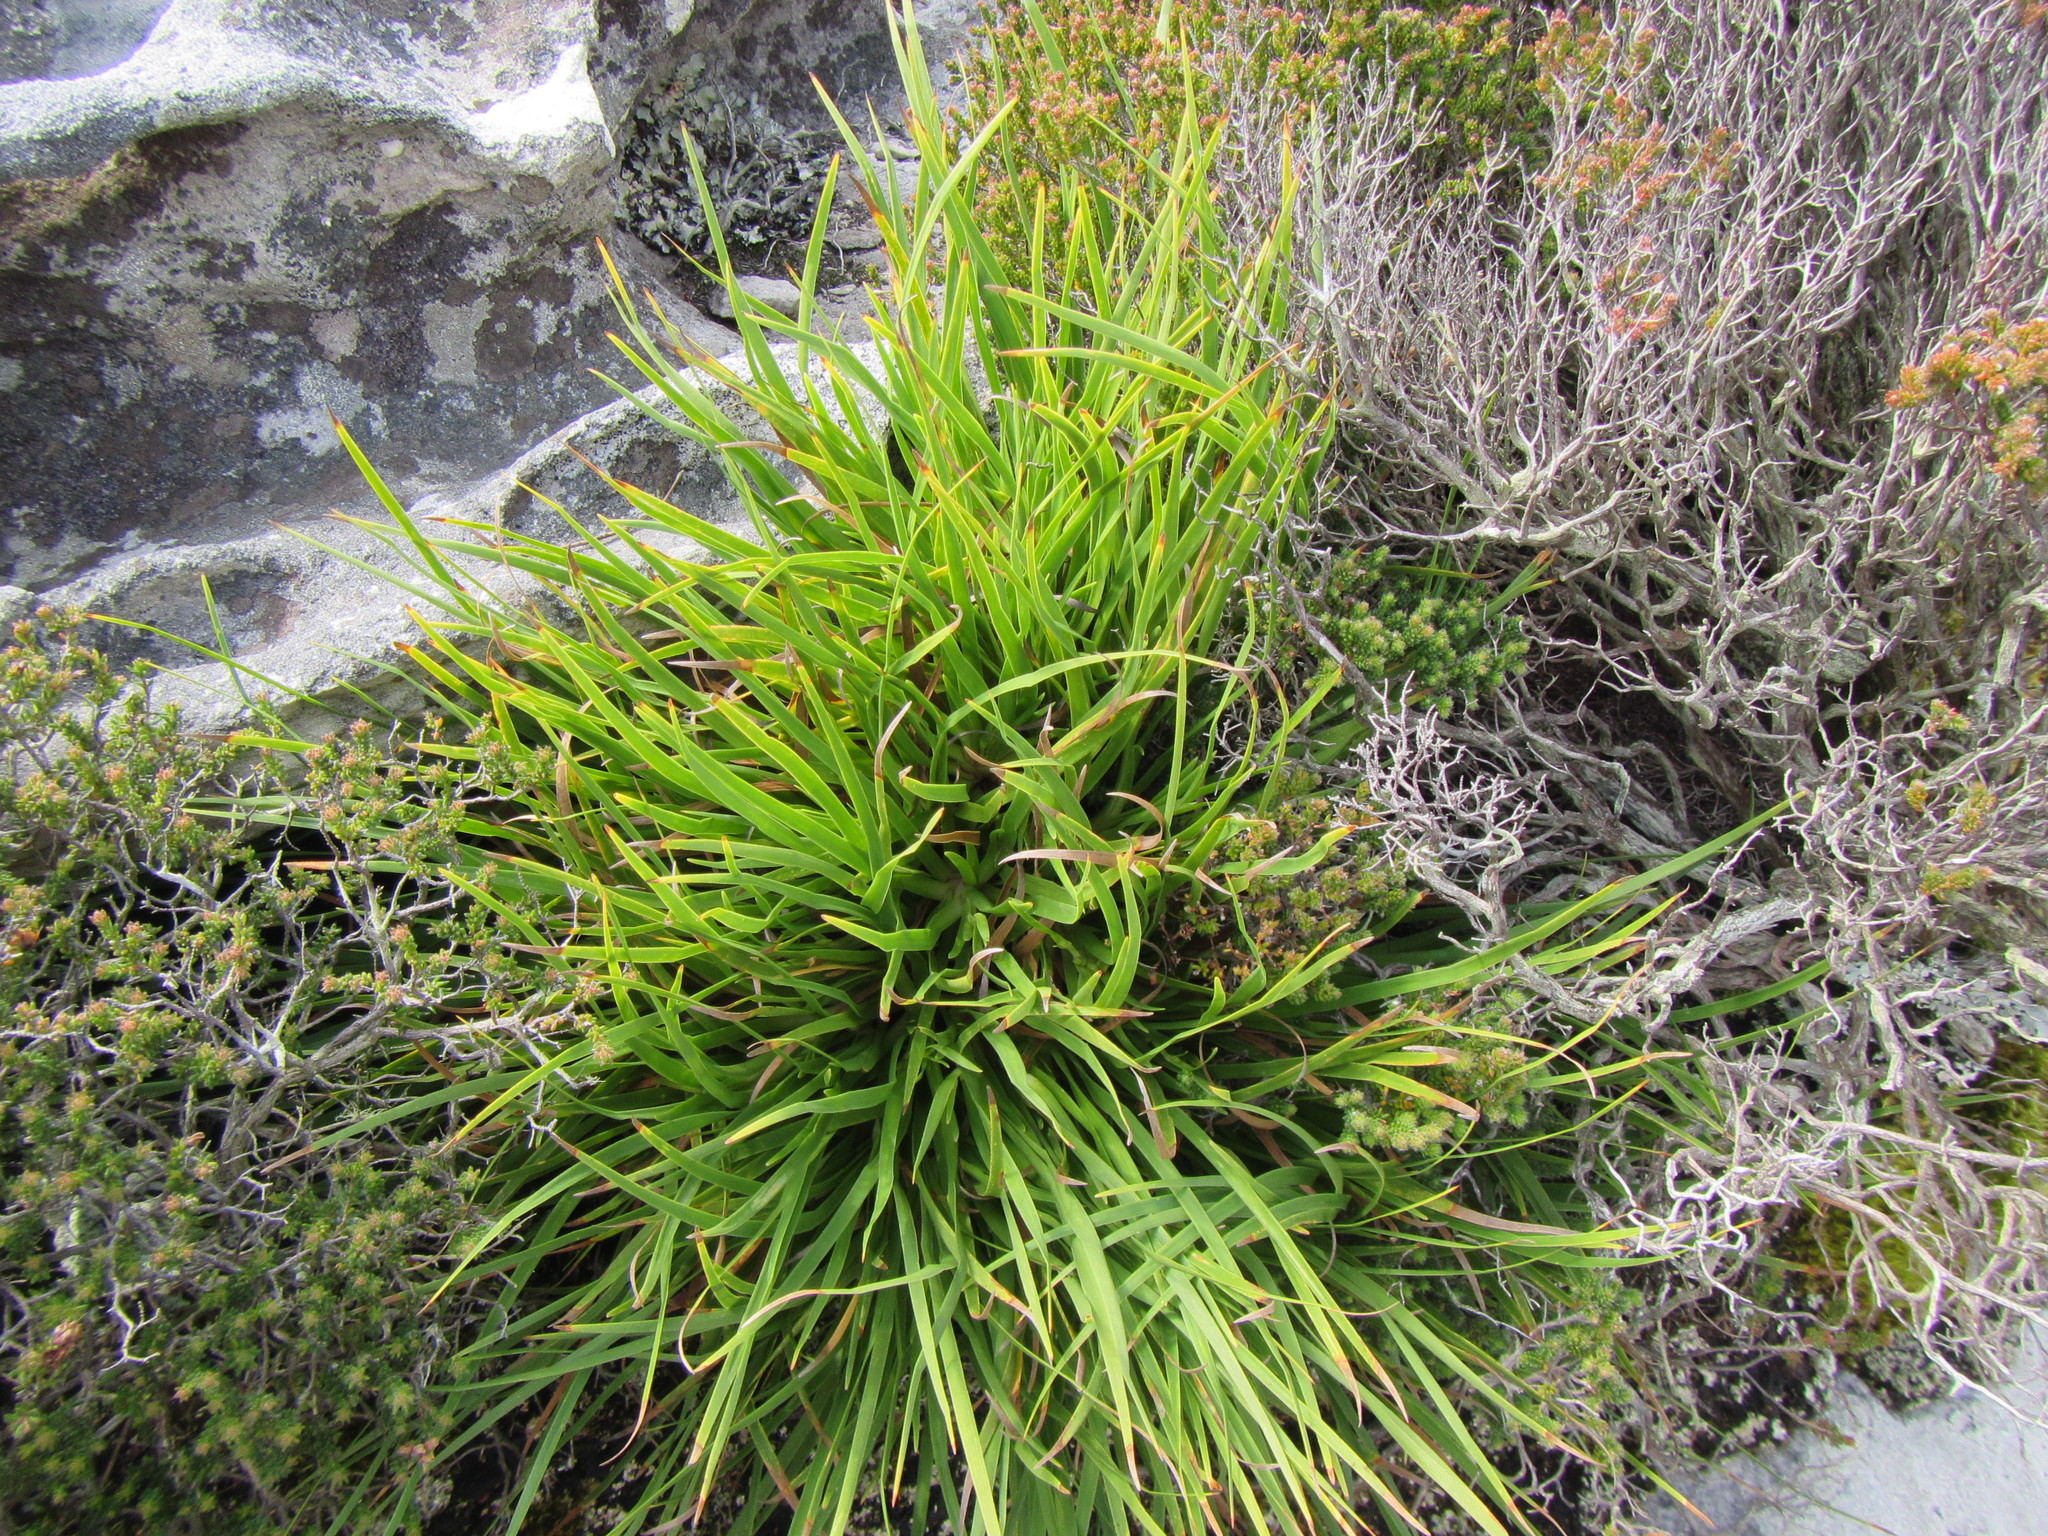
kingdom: Plantae
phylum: Tracheophyta
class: Liliopsida
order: Poales
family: Cyperaceae
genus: Capeobolus
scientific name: Capeobolus brevicaulis
